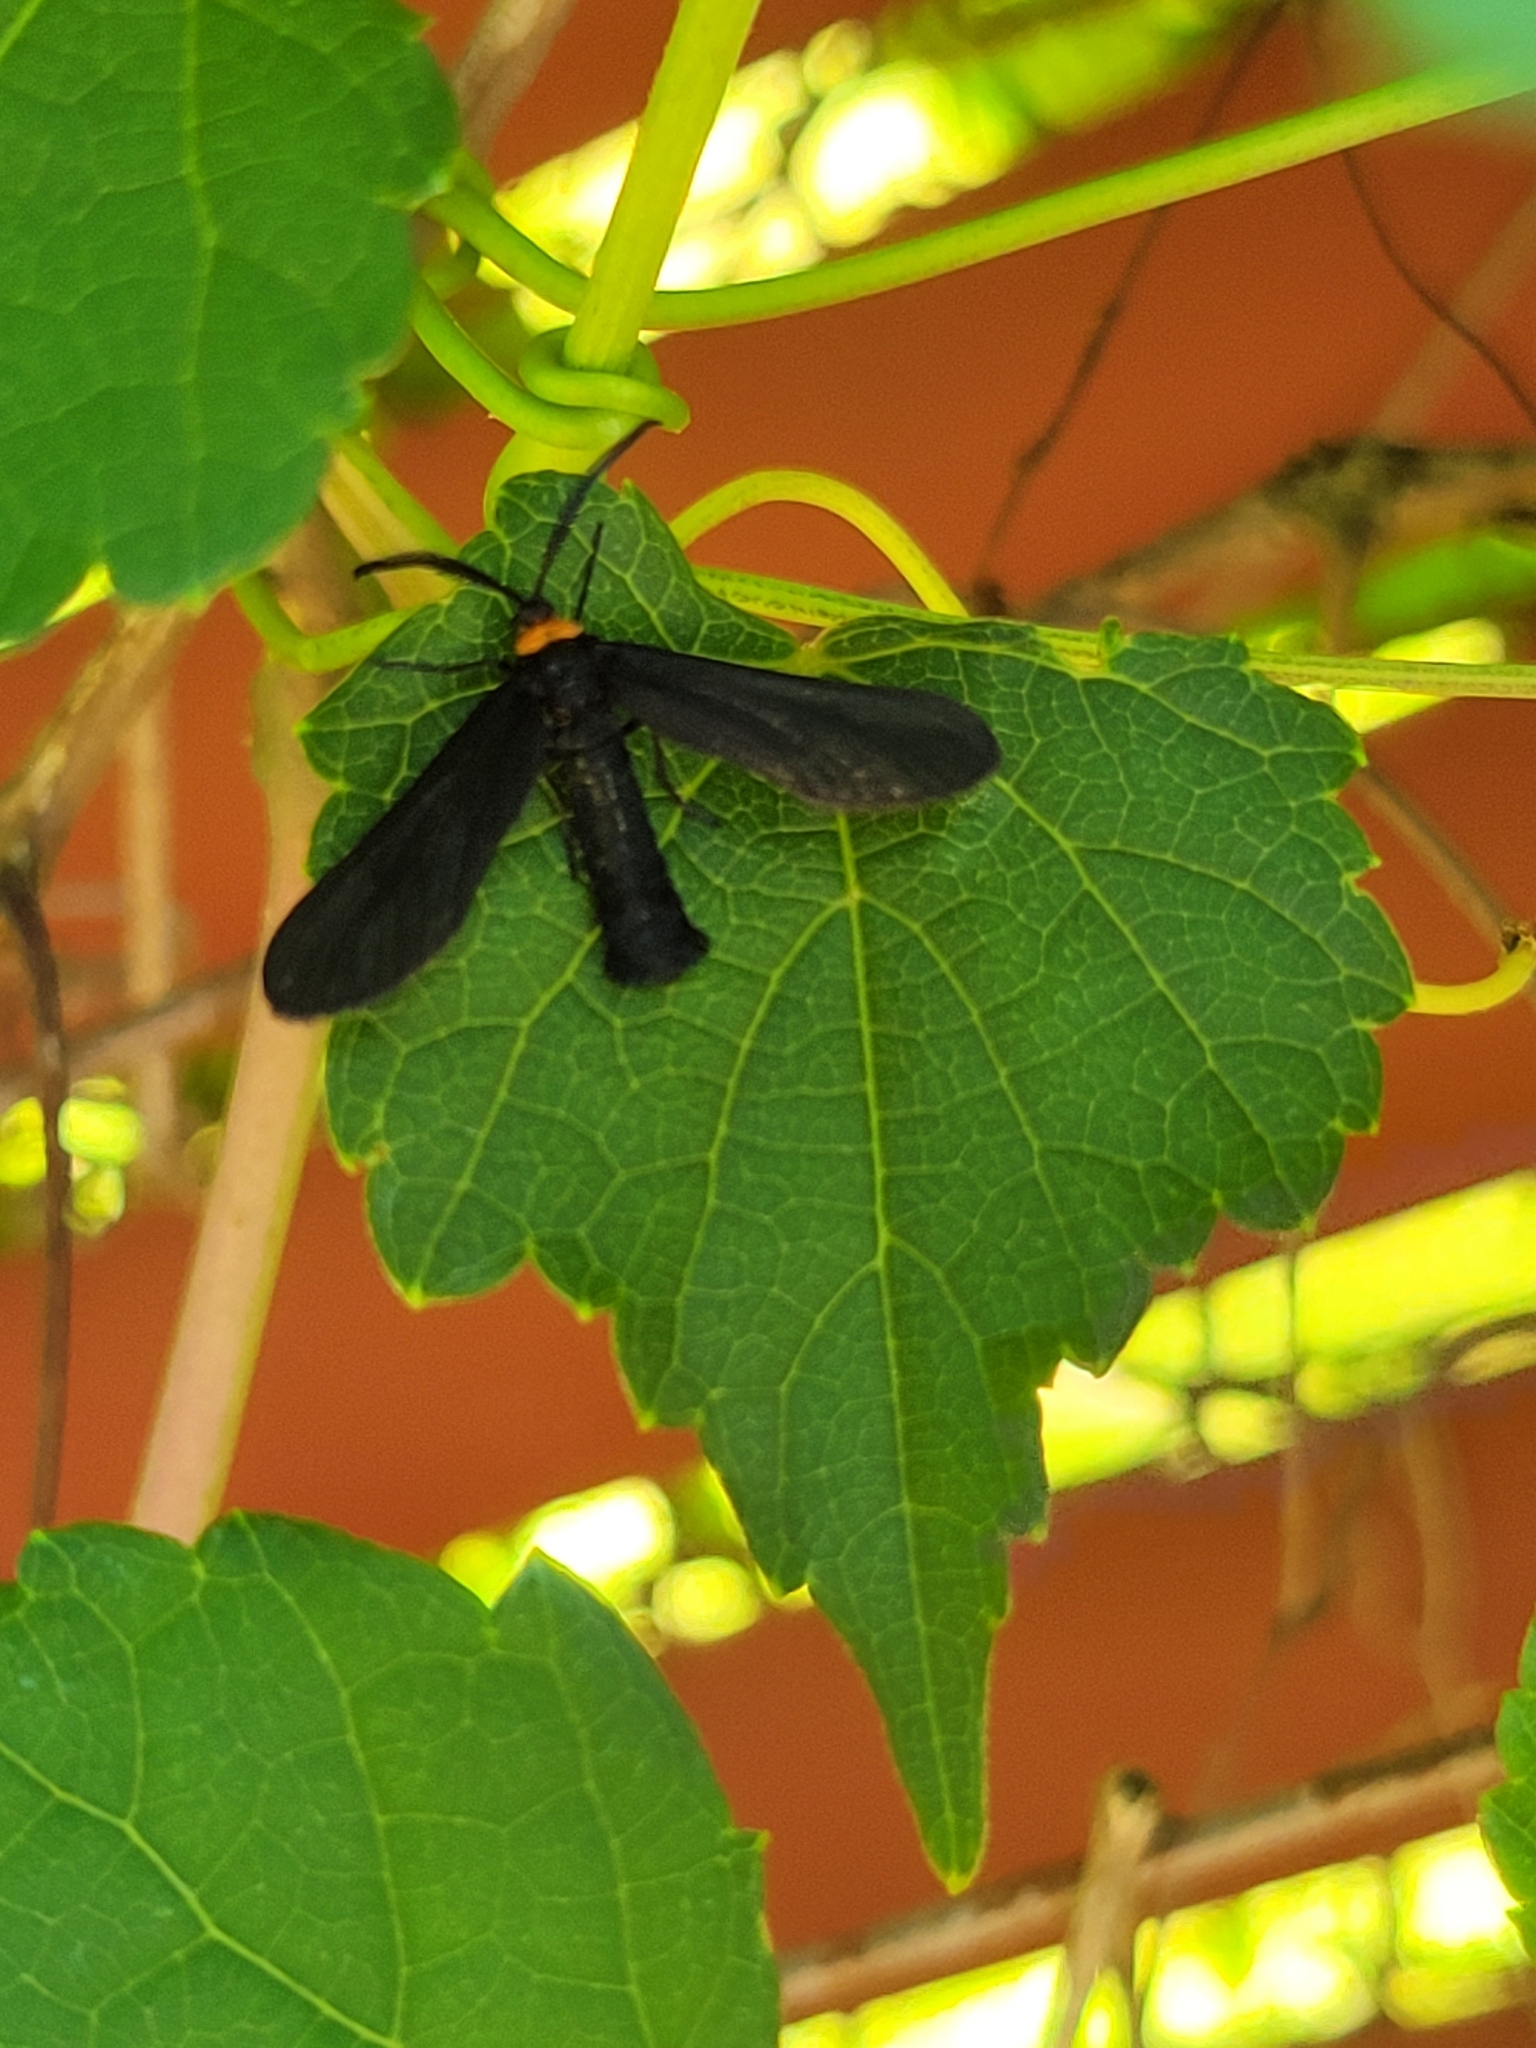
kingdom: Animalia
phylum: Arthropoda
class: Insecta
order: Lepidoptera
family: Zygaenidae
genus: Harrisina
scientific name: Harrisina americana
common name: Grapeleaf skeletonizer moth
